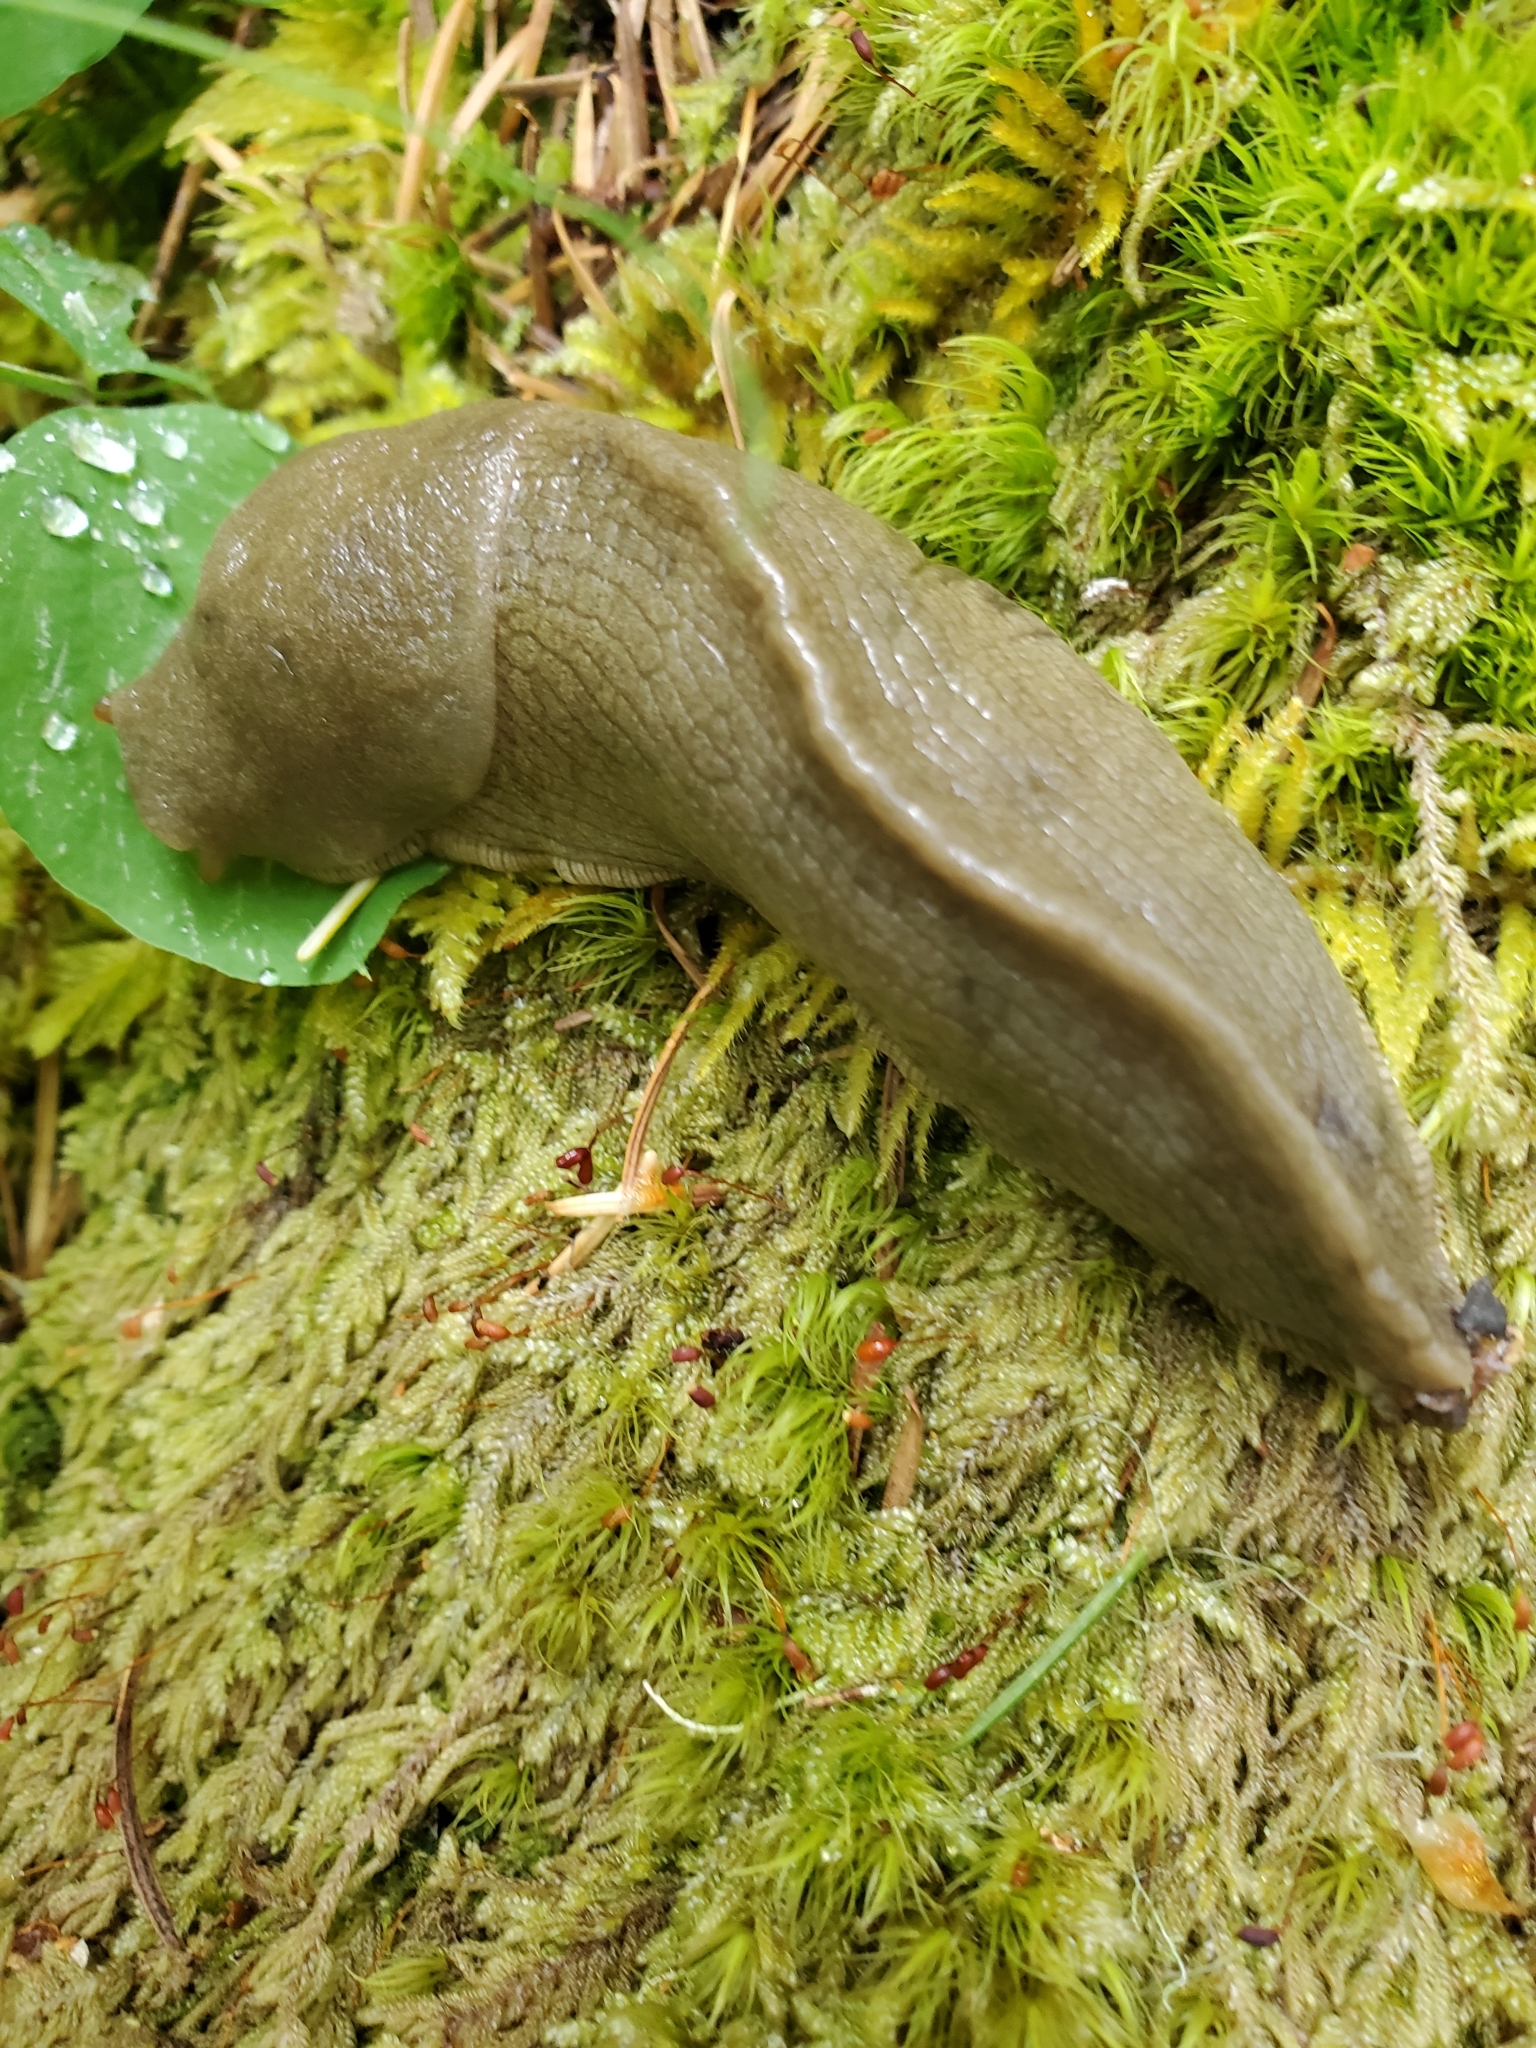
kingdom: Animalia
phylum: Mollusca
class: Gastropoda
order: Stylommatophora
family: Ariolimacidae
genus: Ariolimax
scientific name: Ariolimax columbianus
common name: Pacific banana slug
